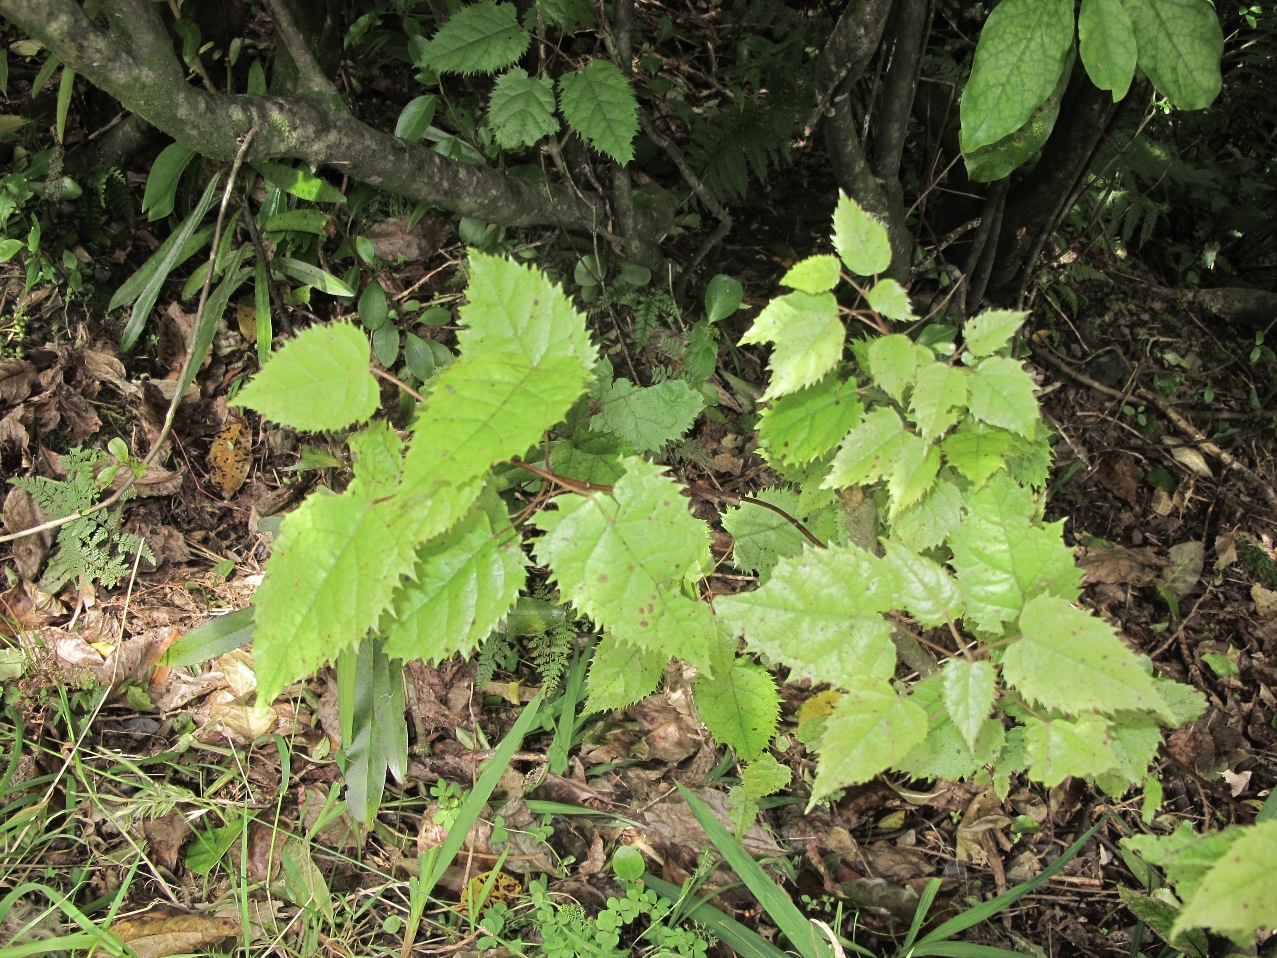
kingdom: Plantae
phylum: Tracheophyta
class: Magnoliopsida
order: Oxalidales
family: Elaeocarpaceae
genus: Aristotelia
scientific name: Aristotelia serrata
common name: New zealand wineberry
